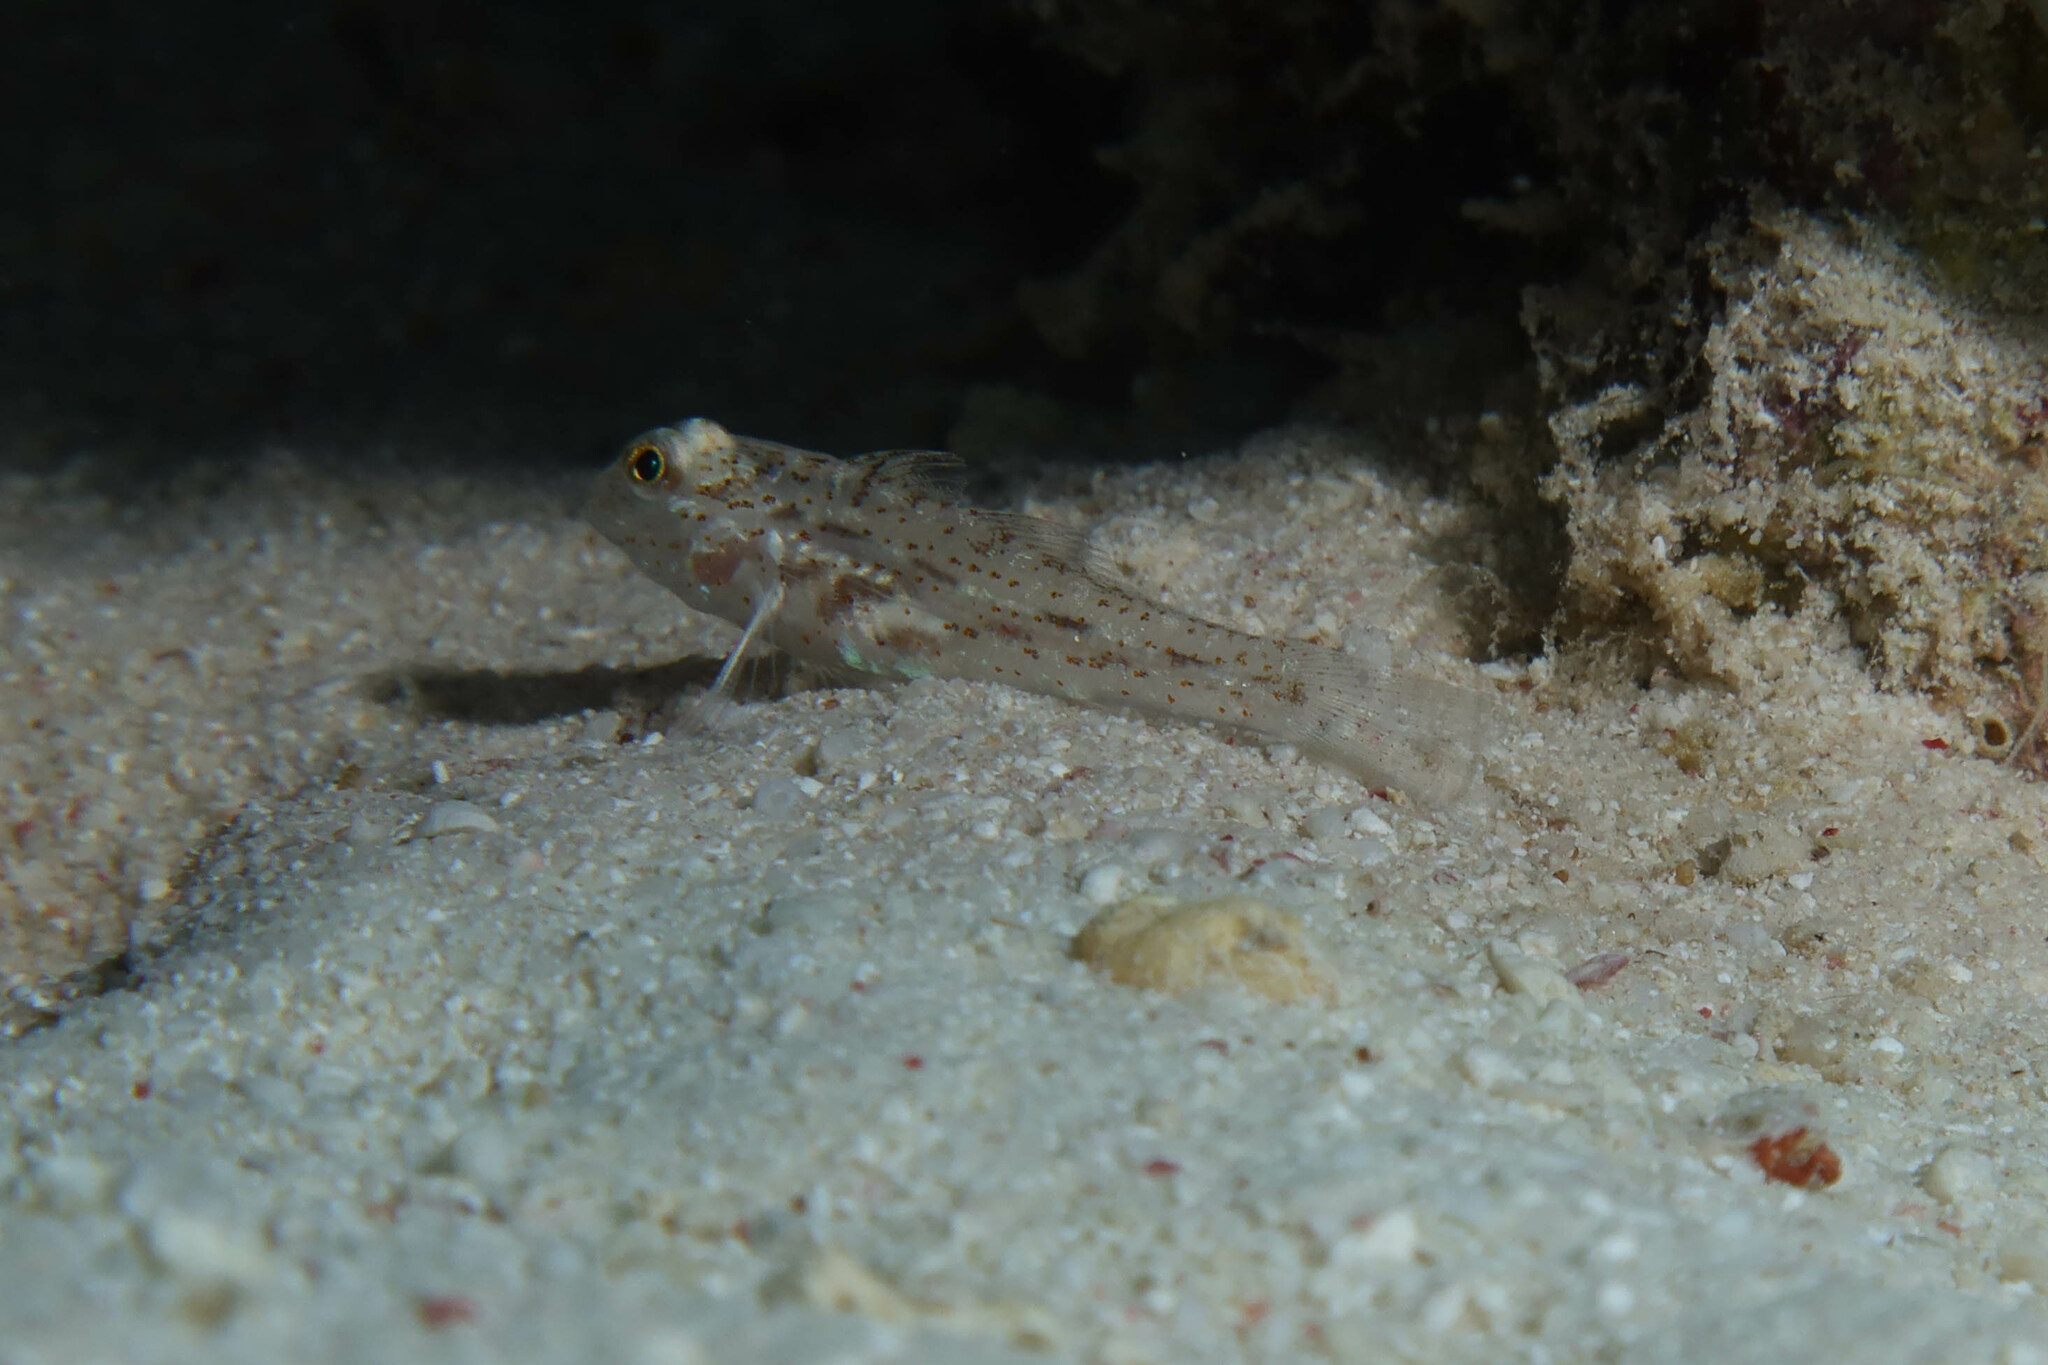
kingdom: Animalia
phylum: Chordata
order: Perciformes
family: Gobiidae
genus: Fusigobius
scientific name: Fusigobius humerosus
